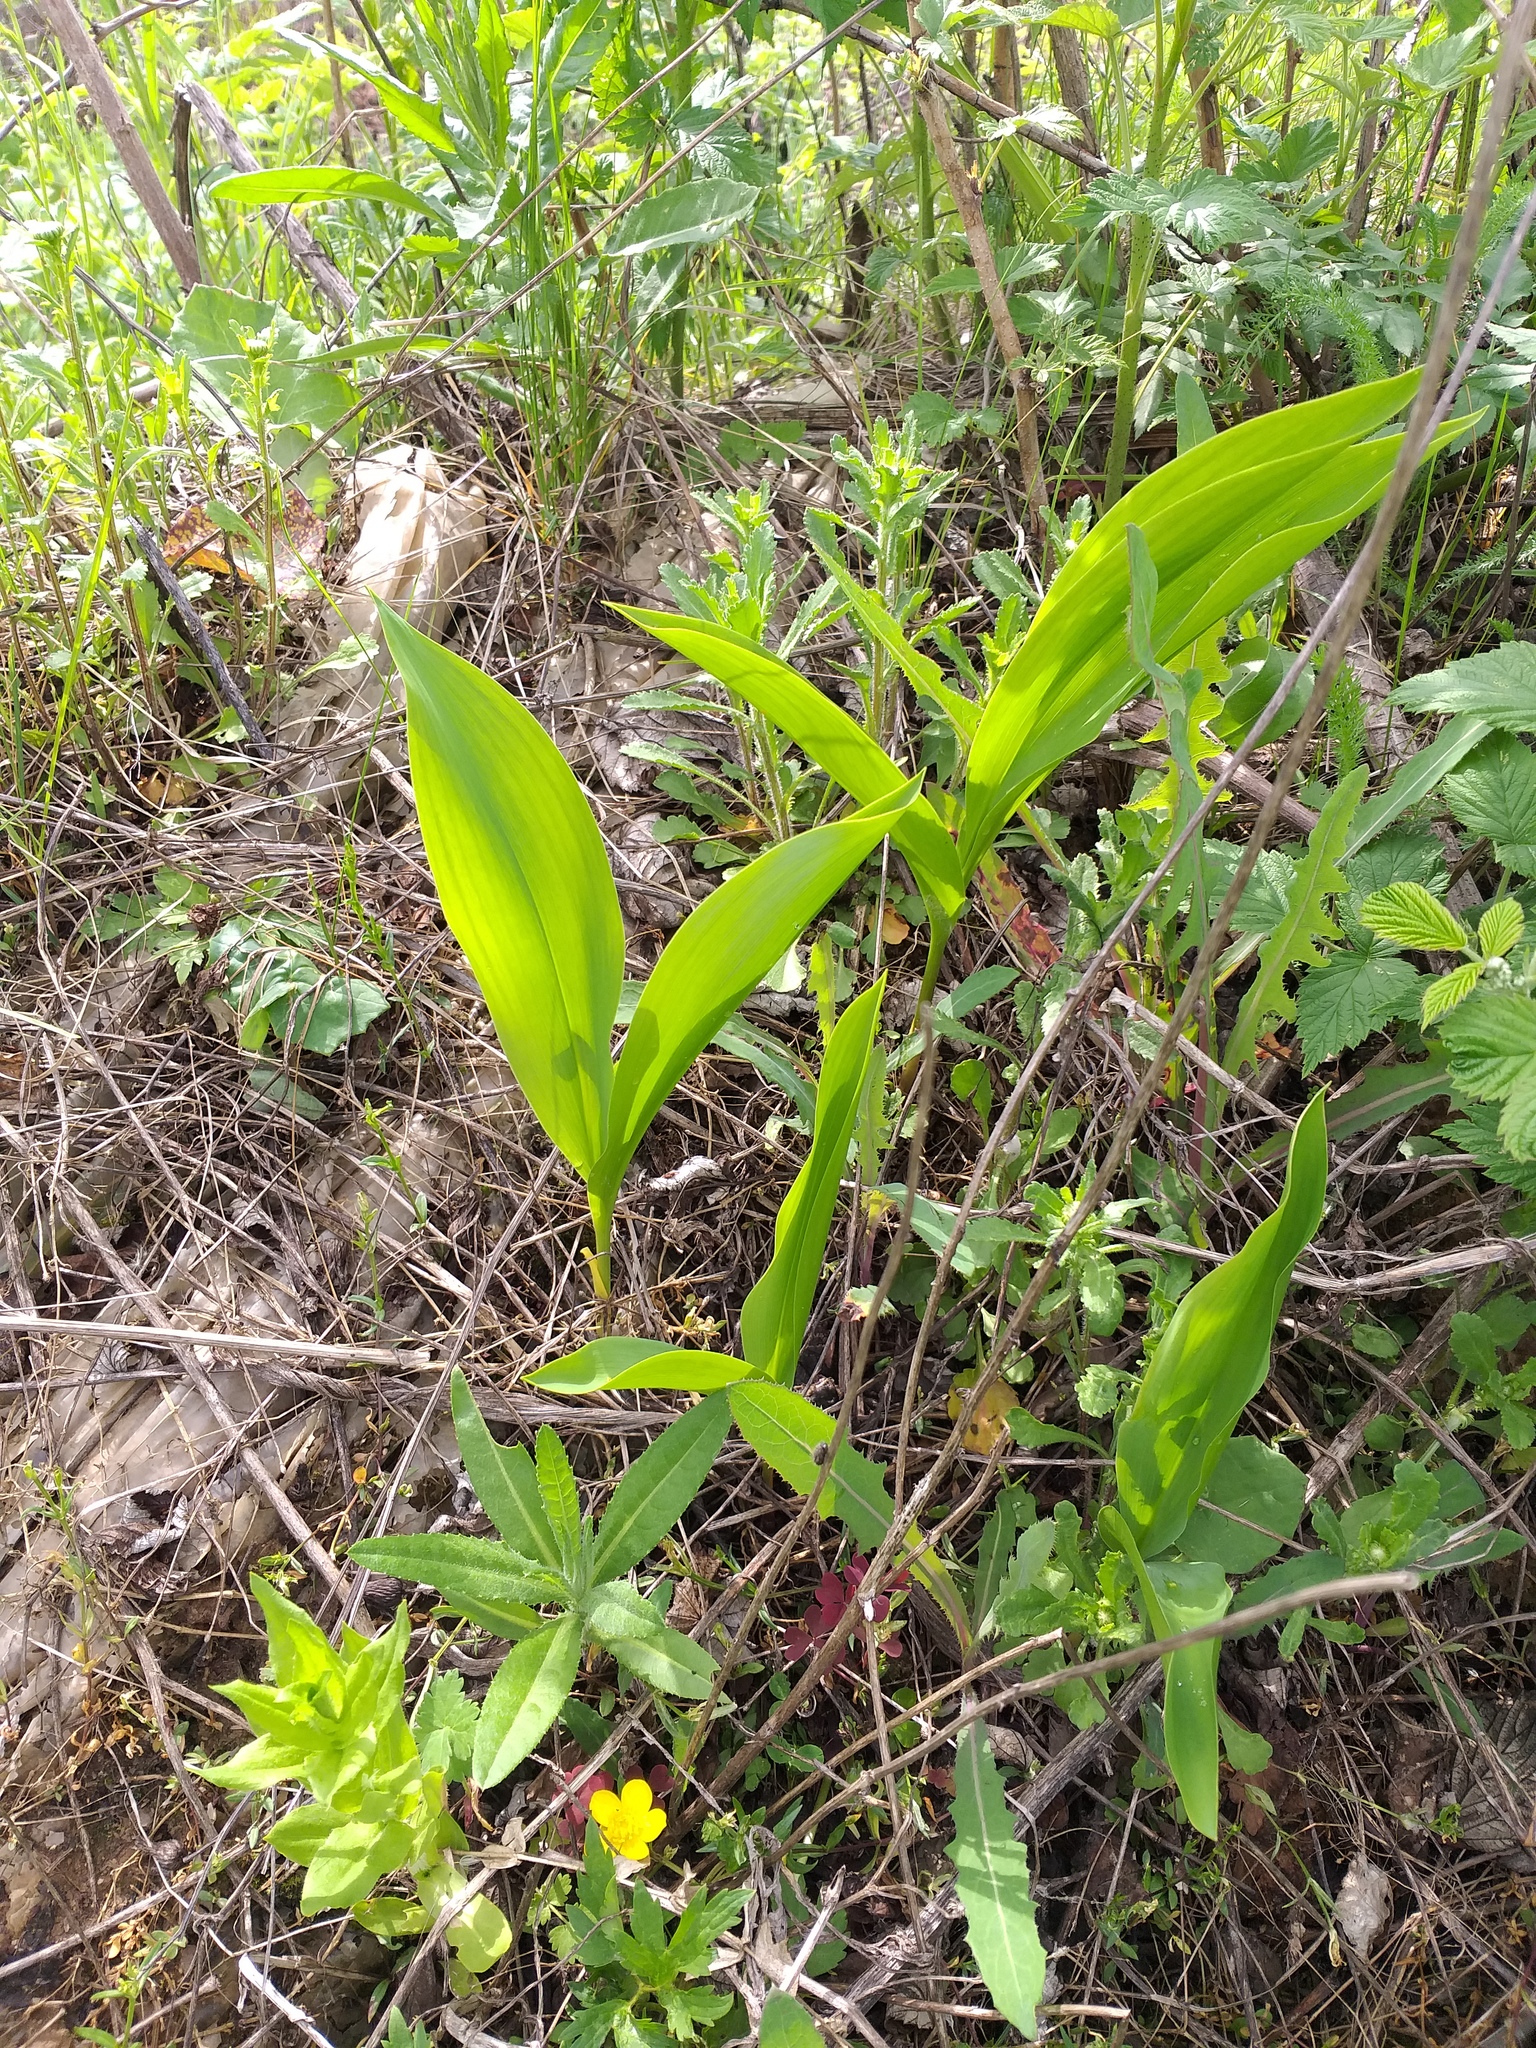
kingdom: Plantae
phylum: Tracheophyta
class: Liliopsida
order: Asparagales
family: Asparagaceae
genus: Convallaria
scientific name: Convallaria majalis
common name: Lily-of-the-valley
